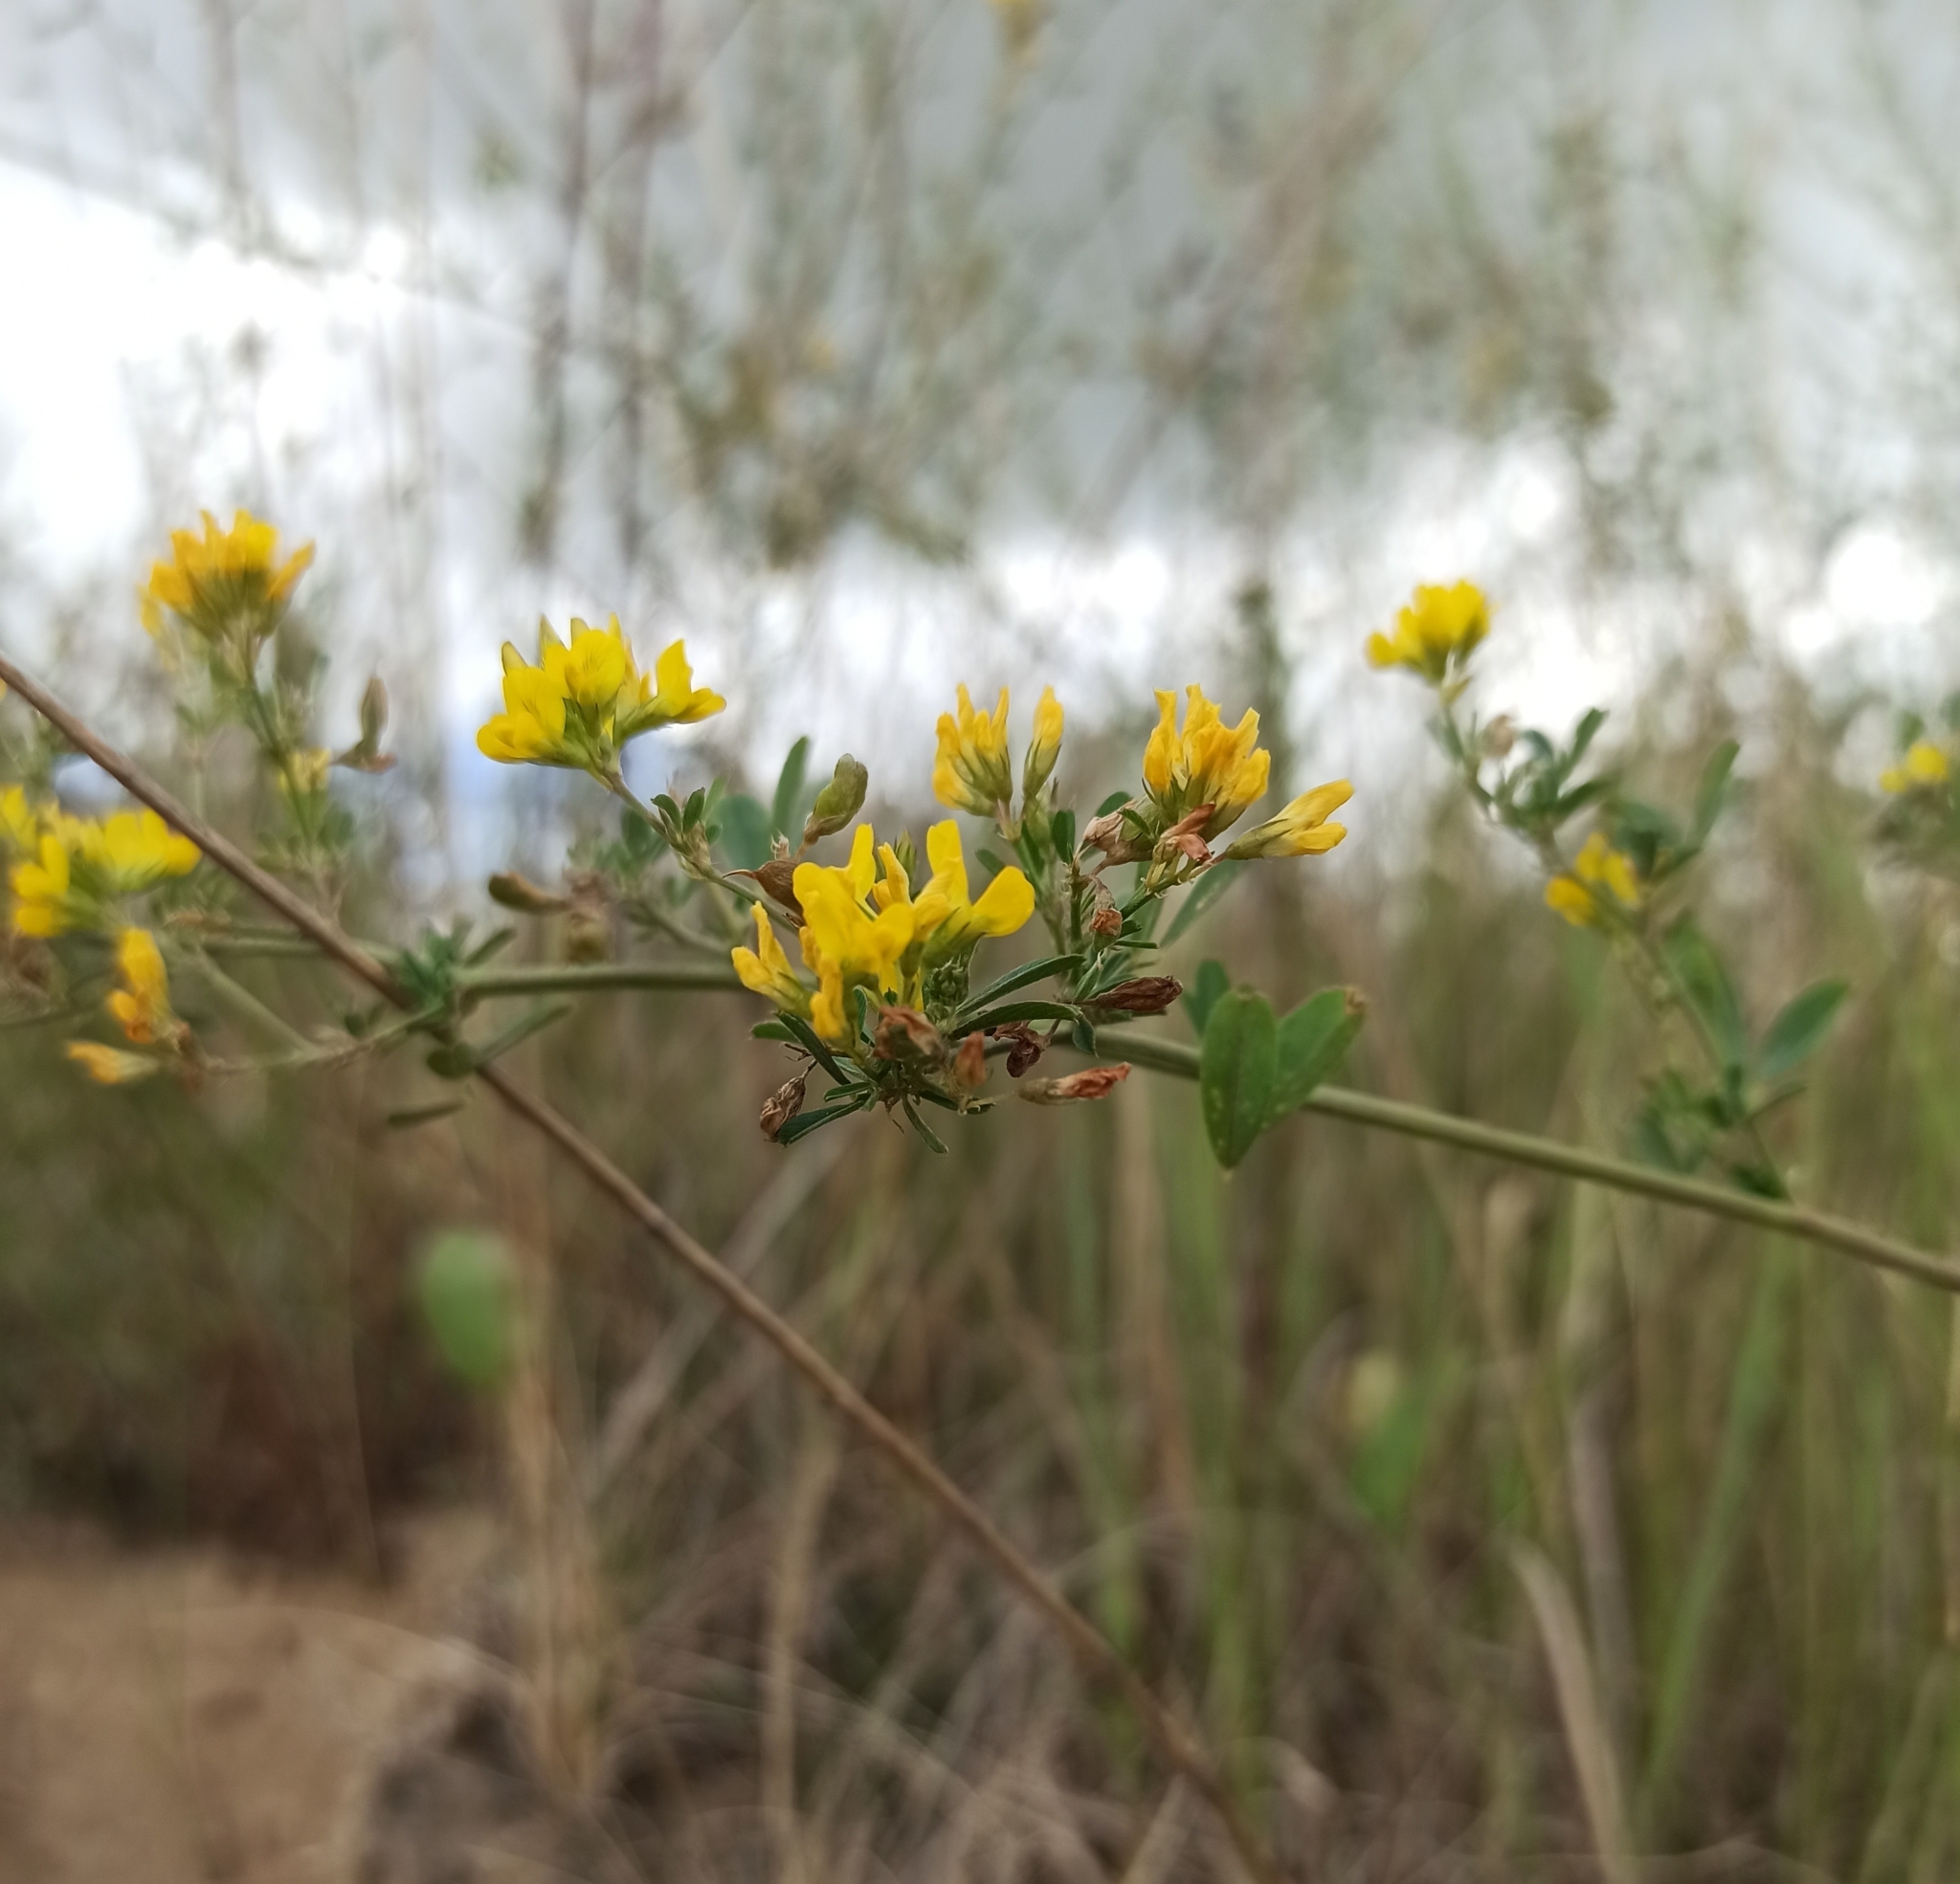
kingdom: Plantae
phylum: Tracheophyta
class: Magnoliopsida
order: Fabales
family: Fabaceae
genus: Medicago
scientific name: Medicago falcata
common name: Sickle medick
